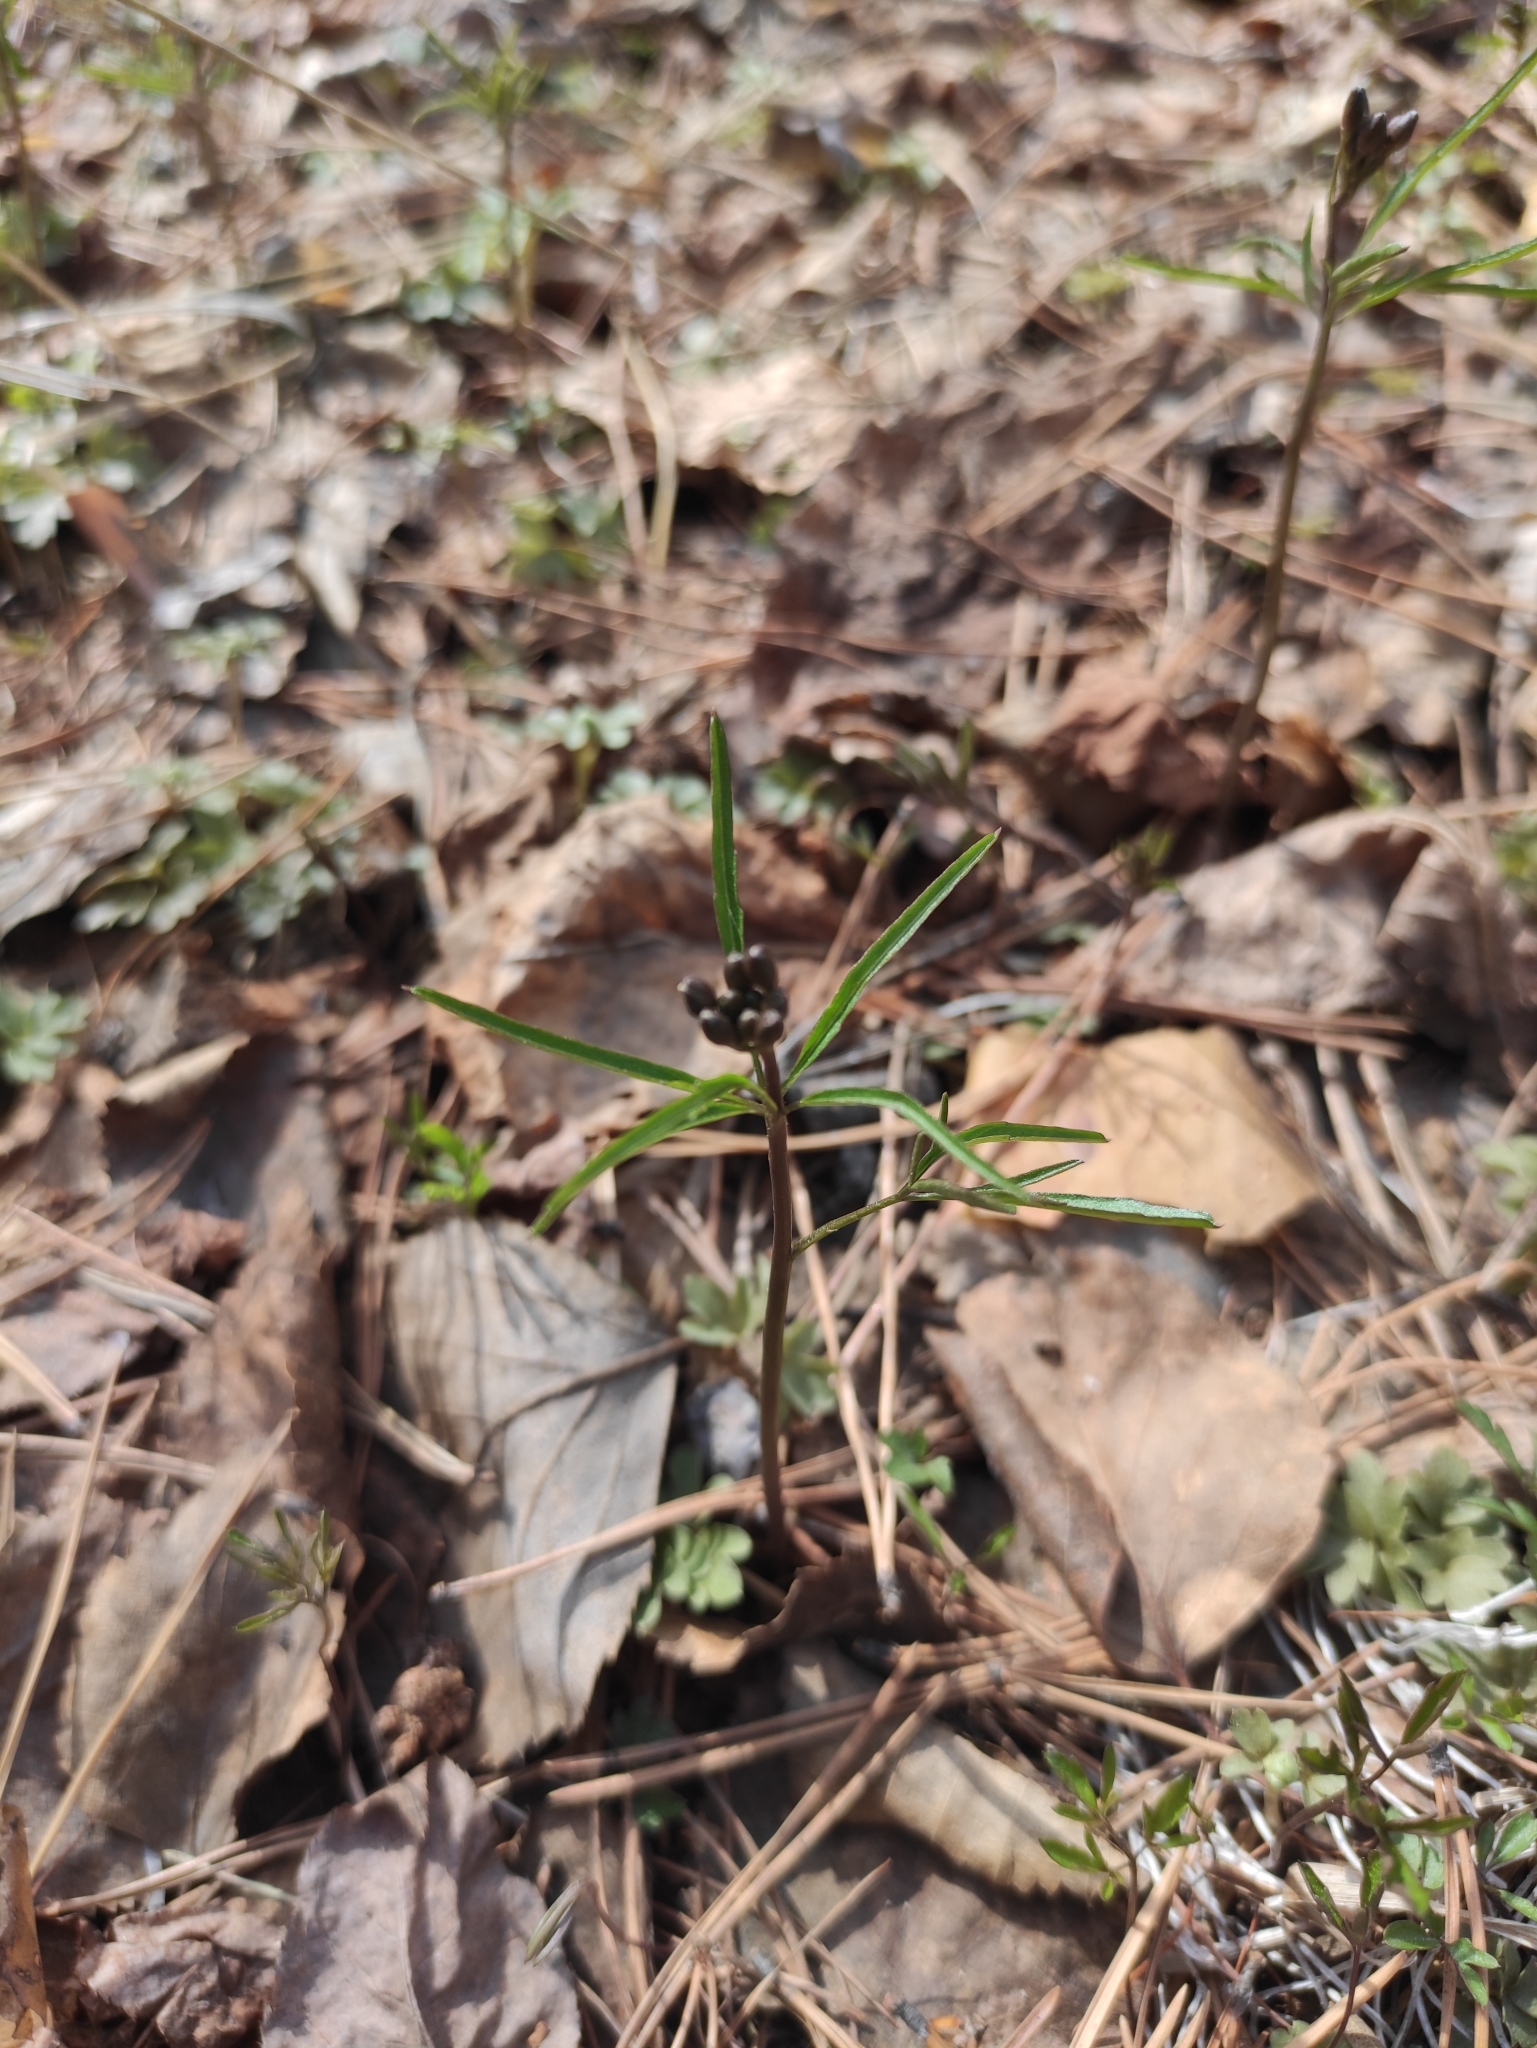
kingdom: Plantae
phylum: Tracheophyta
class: Magnoliopsida
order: Ranunculales
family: Ranunculaceae
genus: Ranunculus
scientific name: Ranunculus monophyllus
